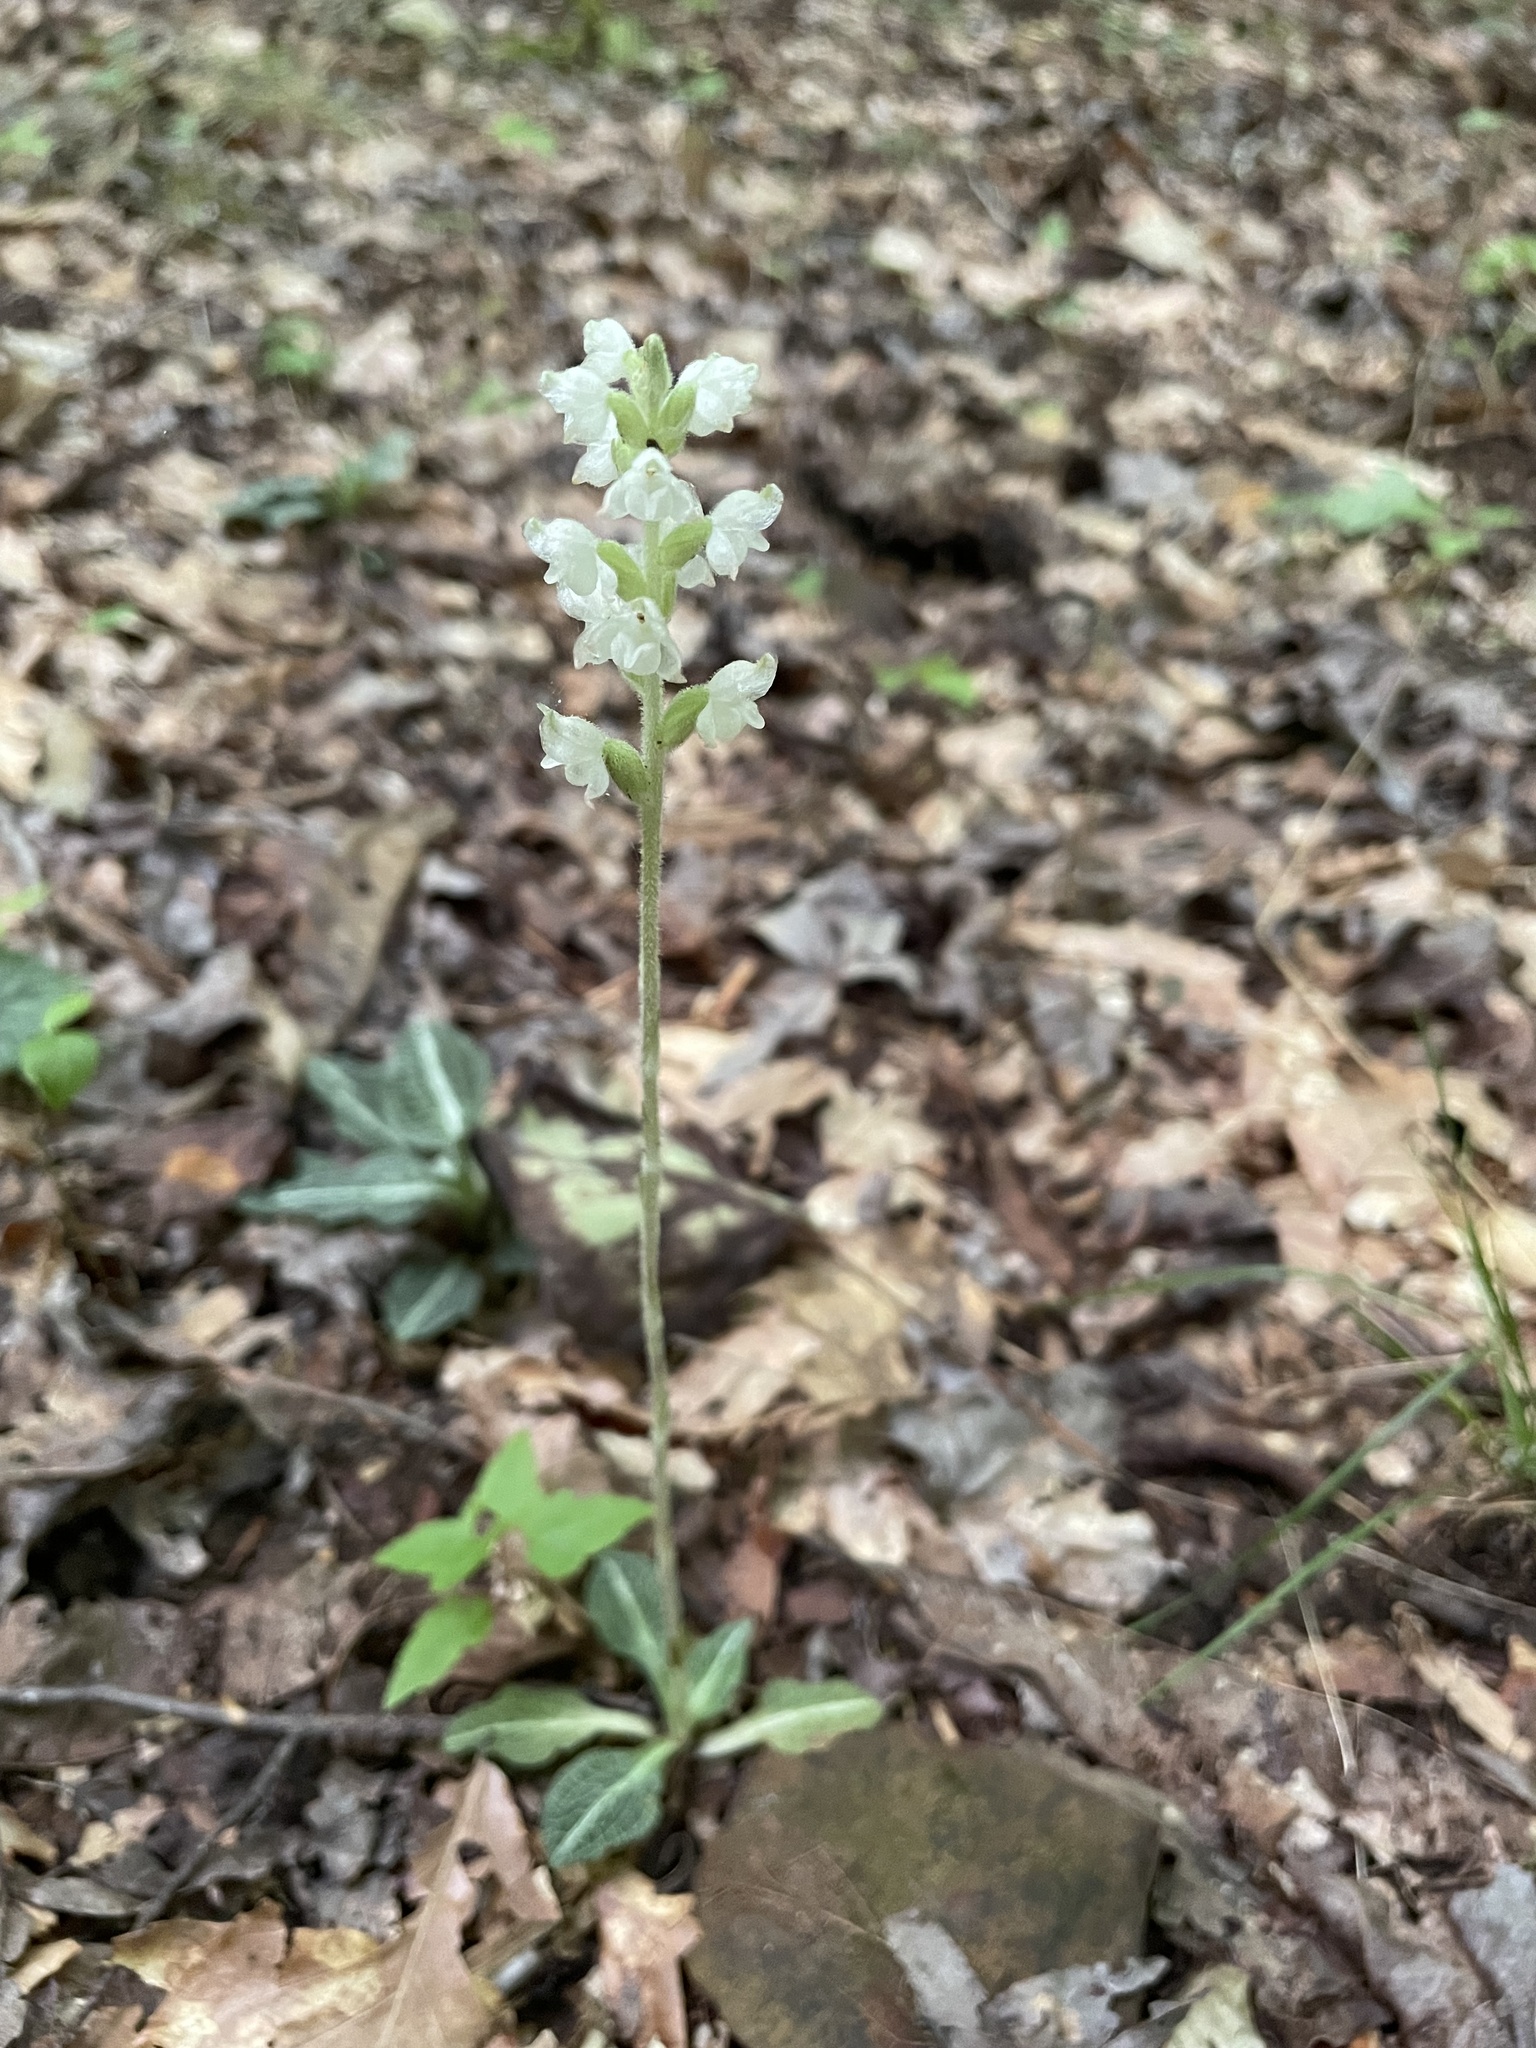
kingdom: Plantae
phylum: Tracheophyta
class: Liliopsida
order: Asparagales
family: Orchidaceae
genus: Goodyera
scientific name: Goodyera pubescens
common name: Downy rattlesnake-plantain
